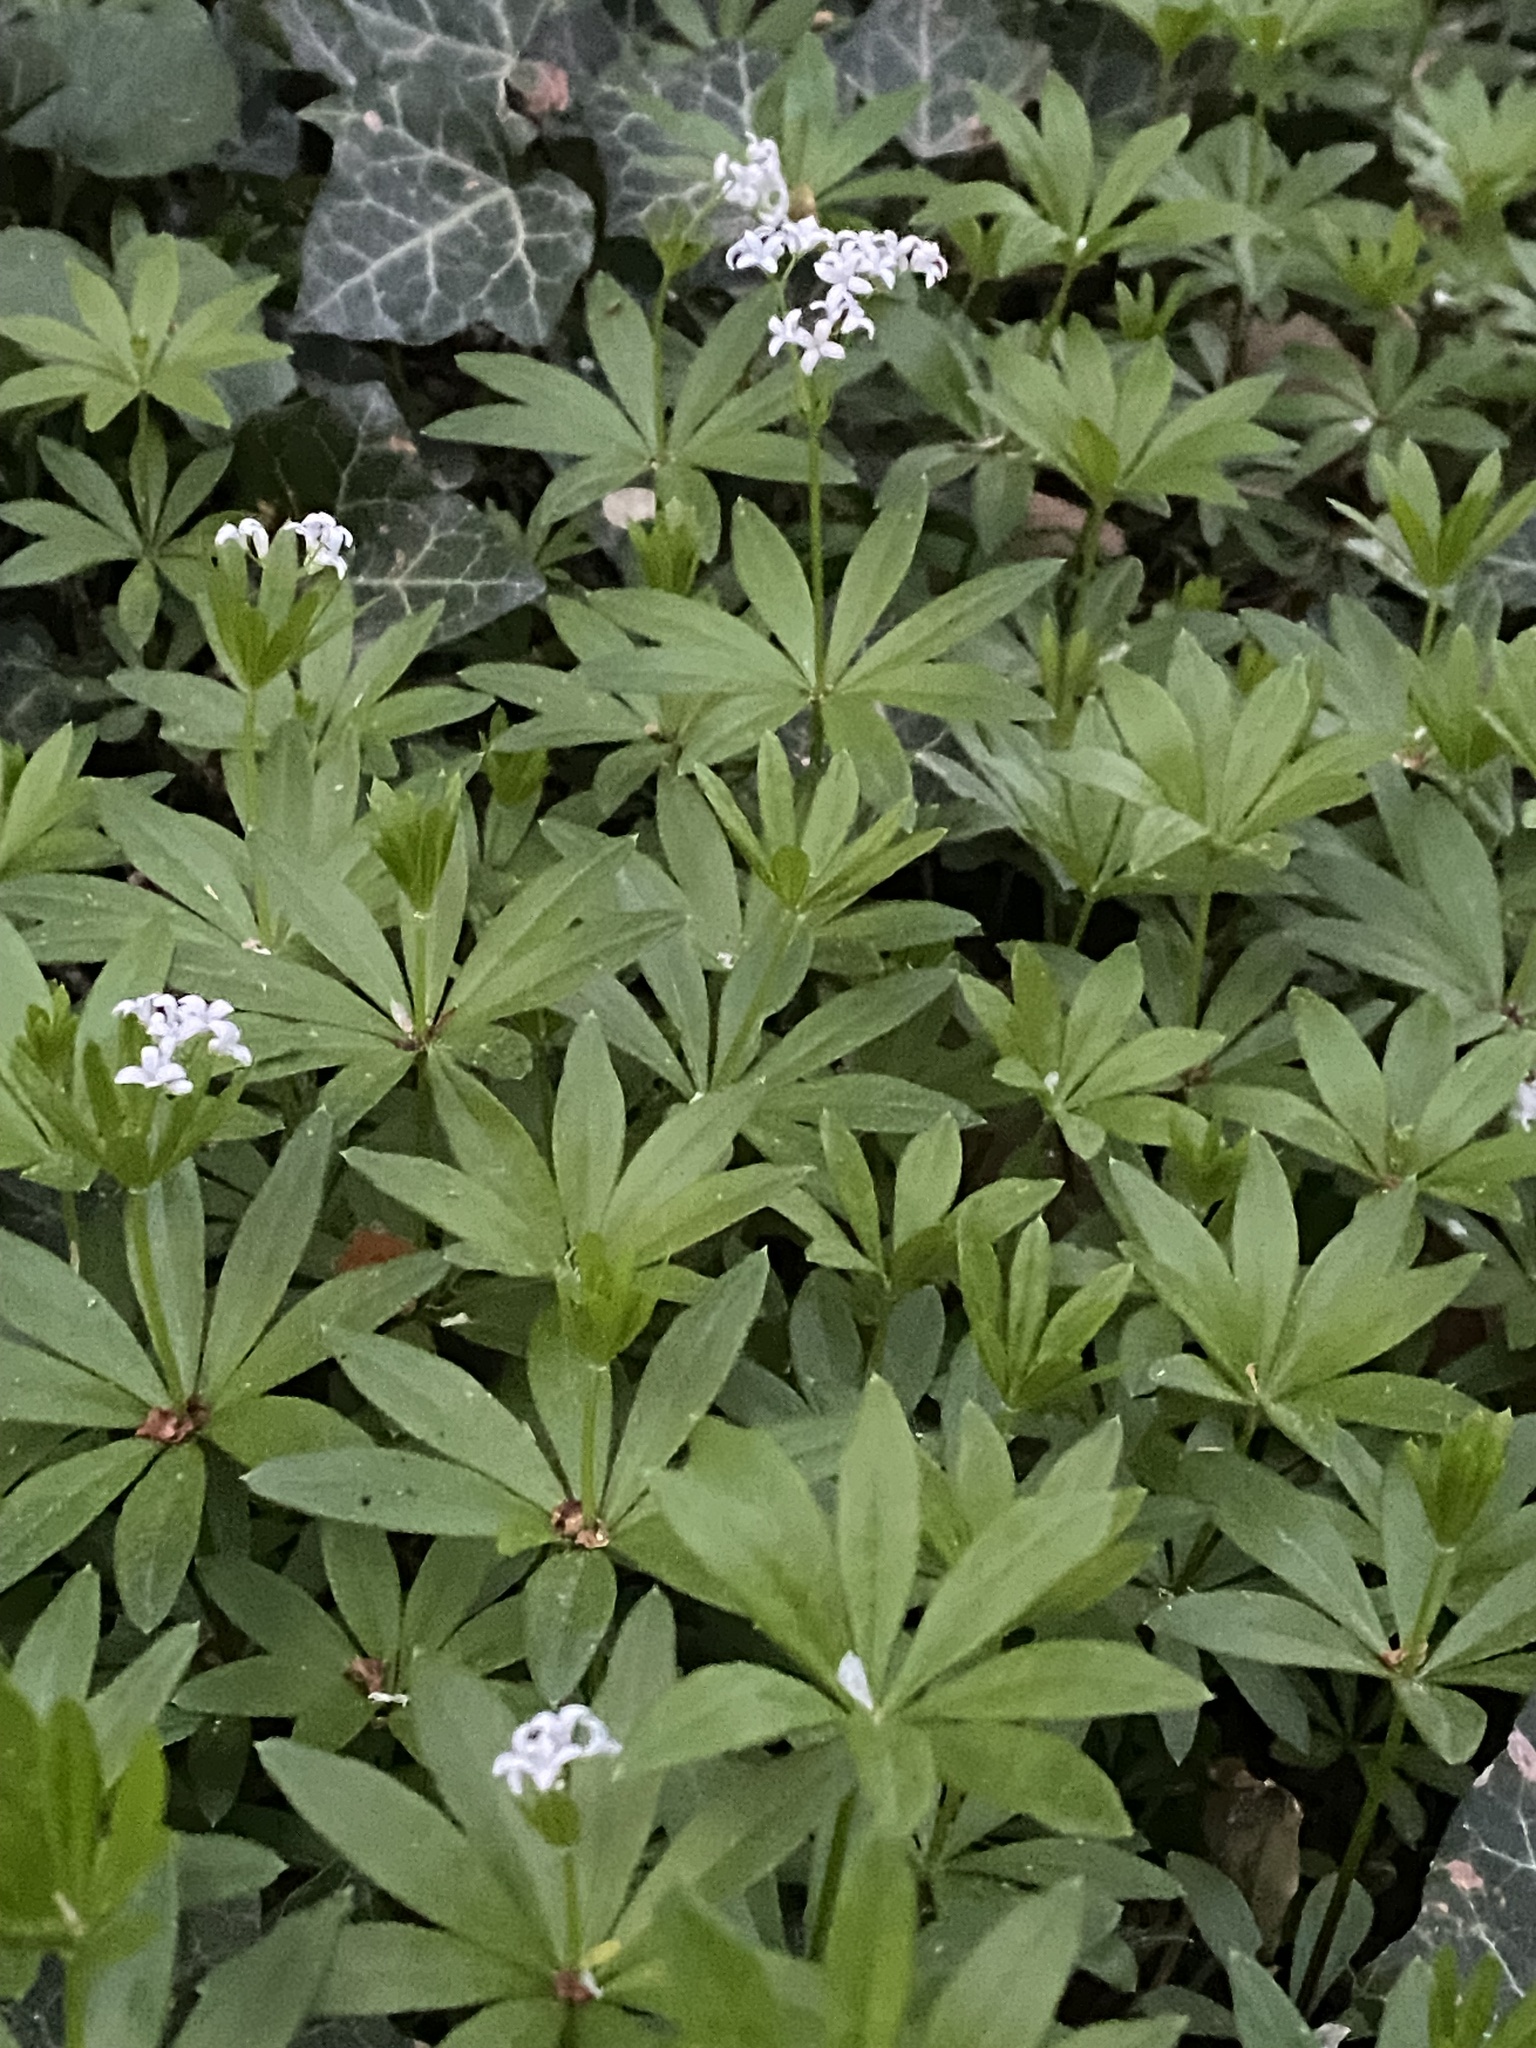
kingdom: Plantae
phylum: Tracheophyta
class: Magnoliopsida
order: Gentianales
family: Rubiaceae
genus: Galium
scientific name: Galium odoratum
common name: Sweet woodruff
